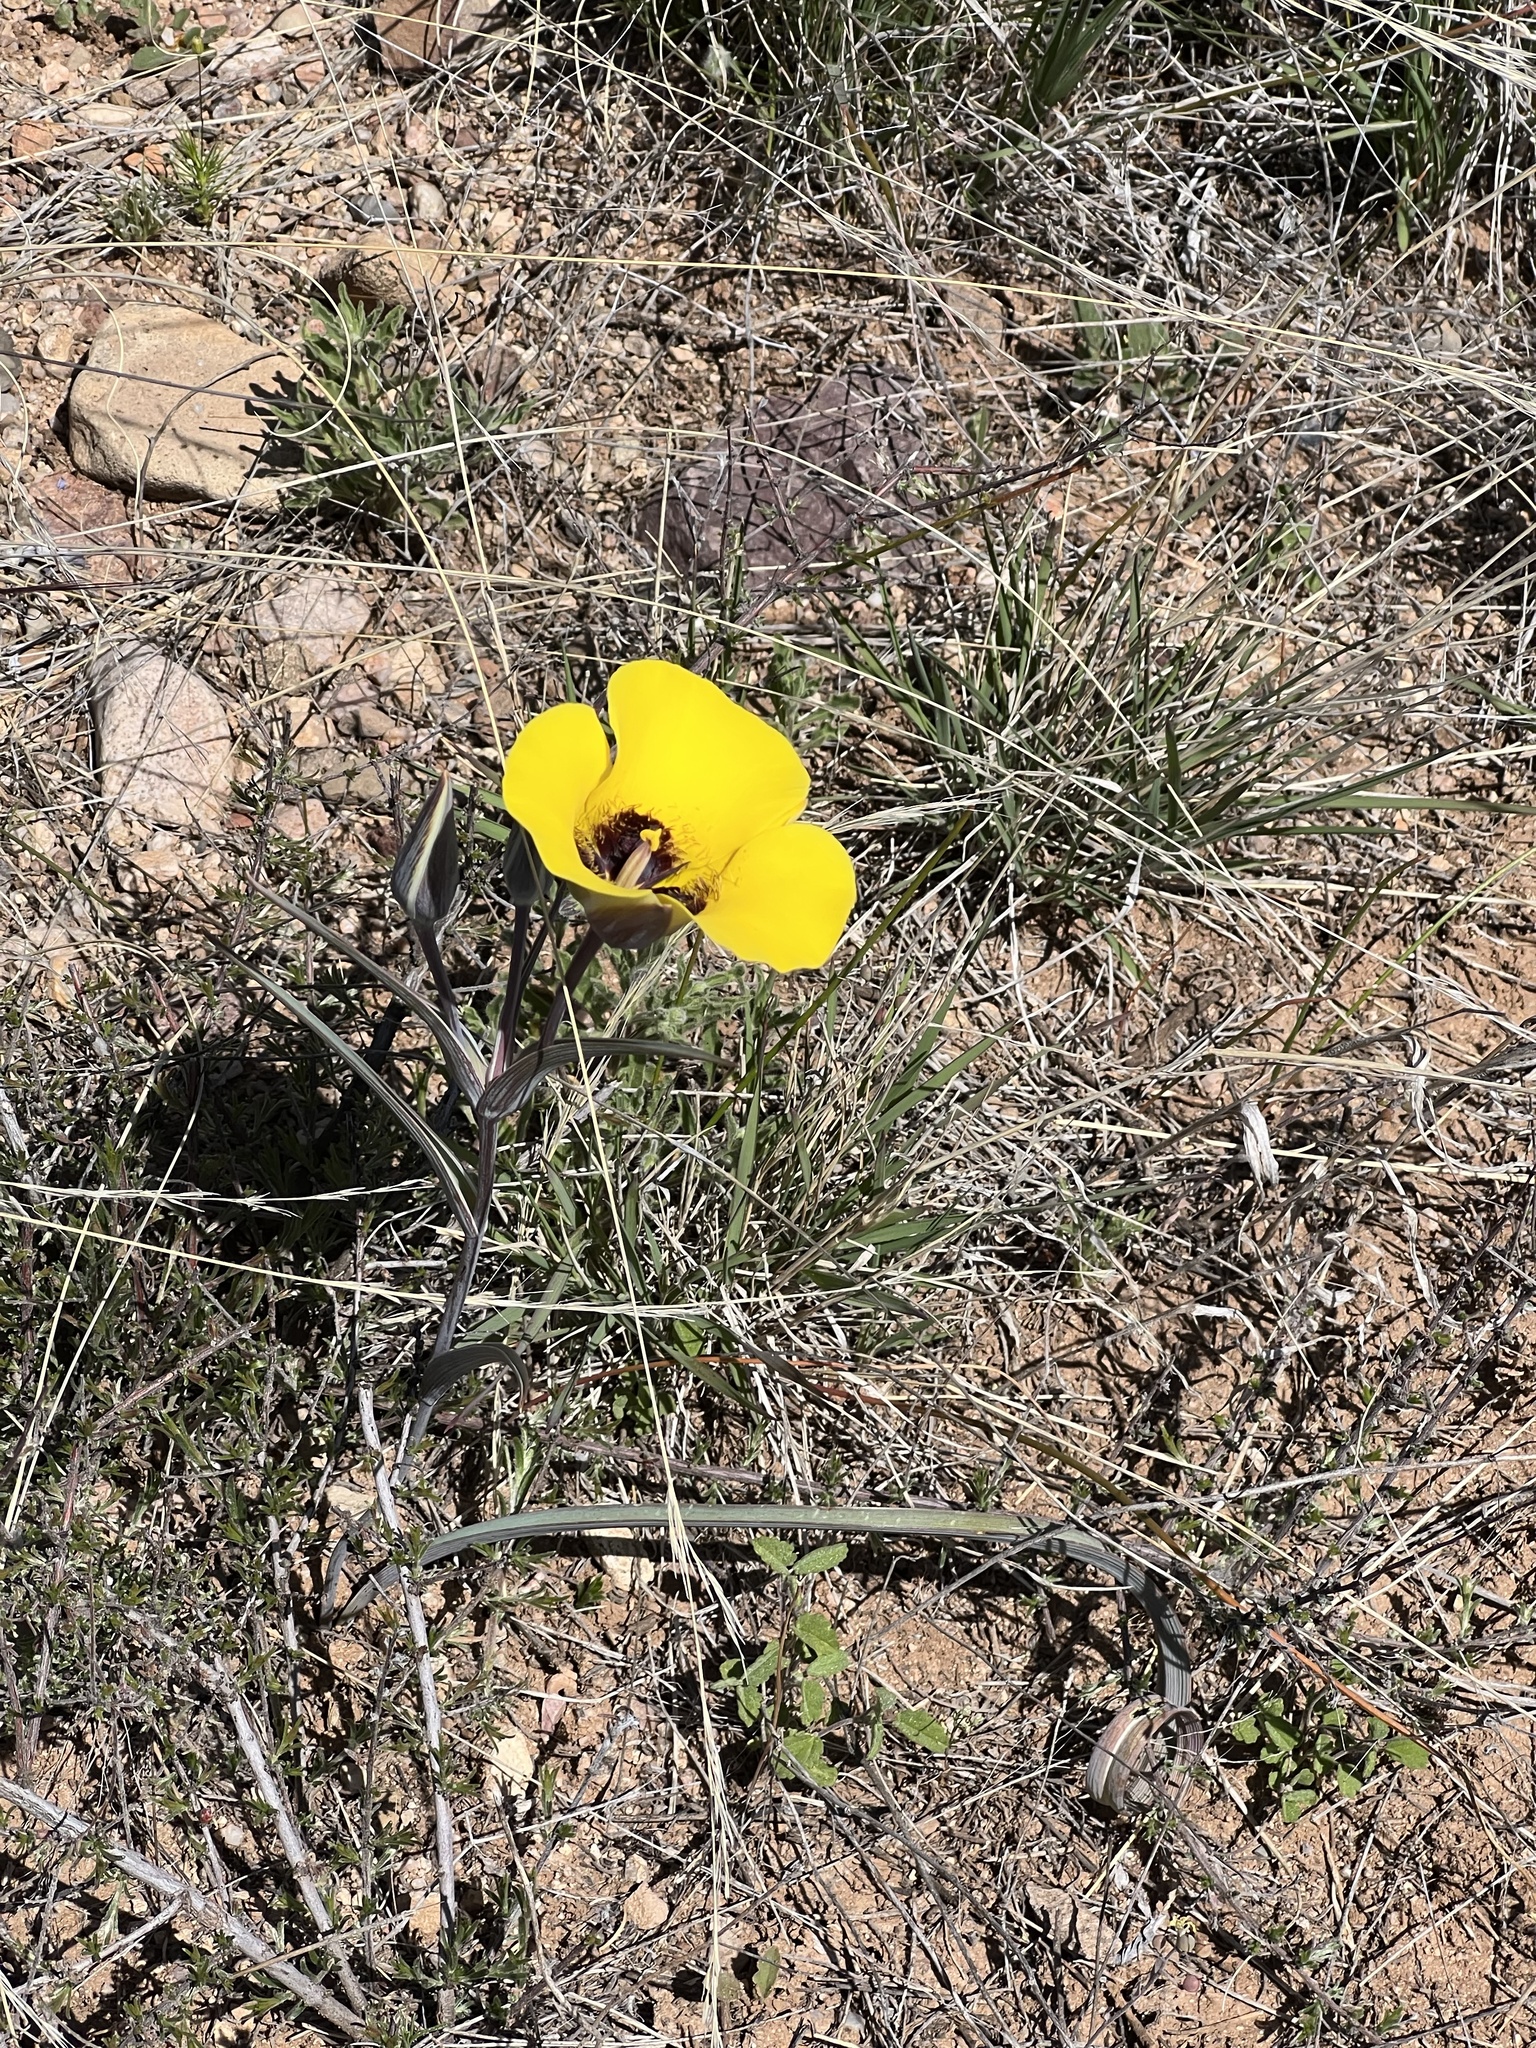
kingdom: Plantae
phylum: Tracheophyta
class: Liliopsida
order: Liliales
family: Liliaceae
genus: Calochortus
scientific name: Calochortus kennedyi
